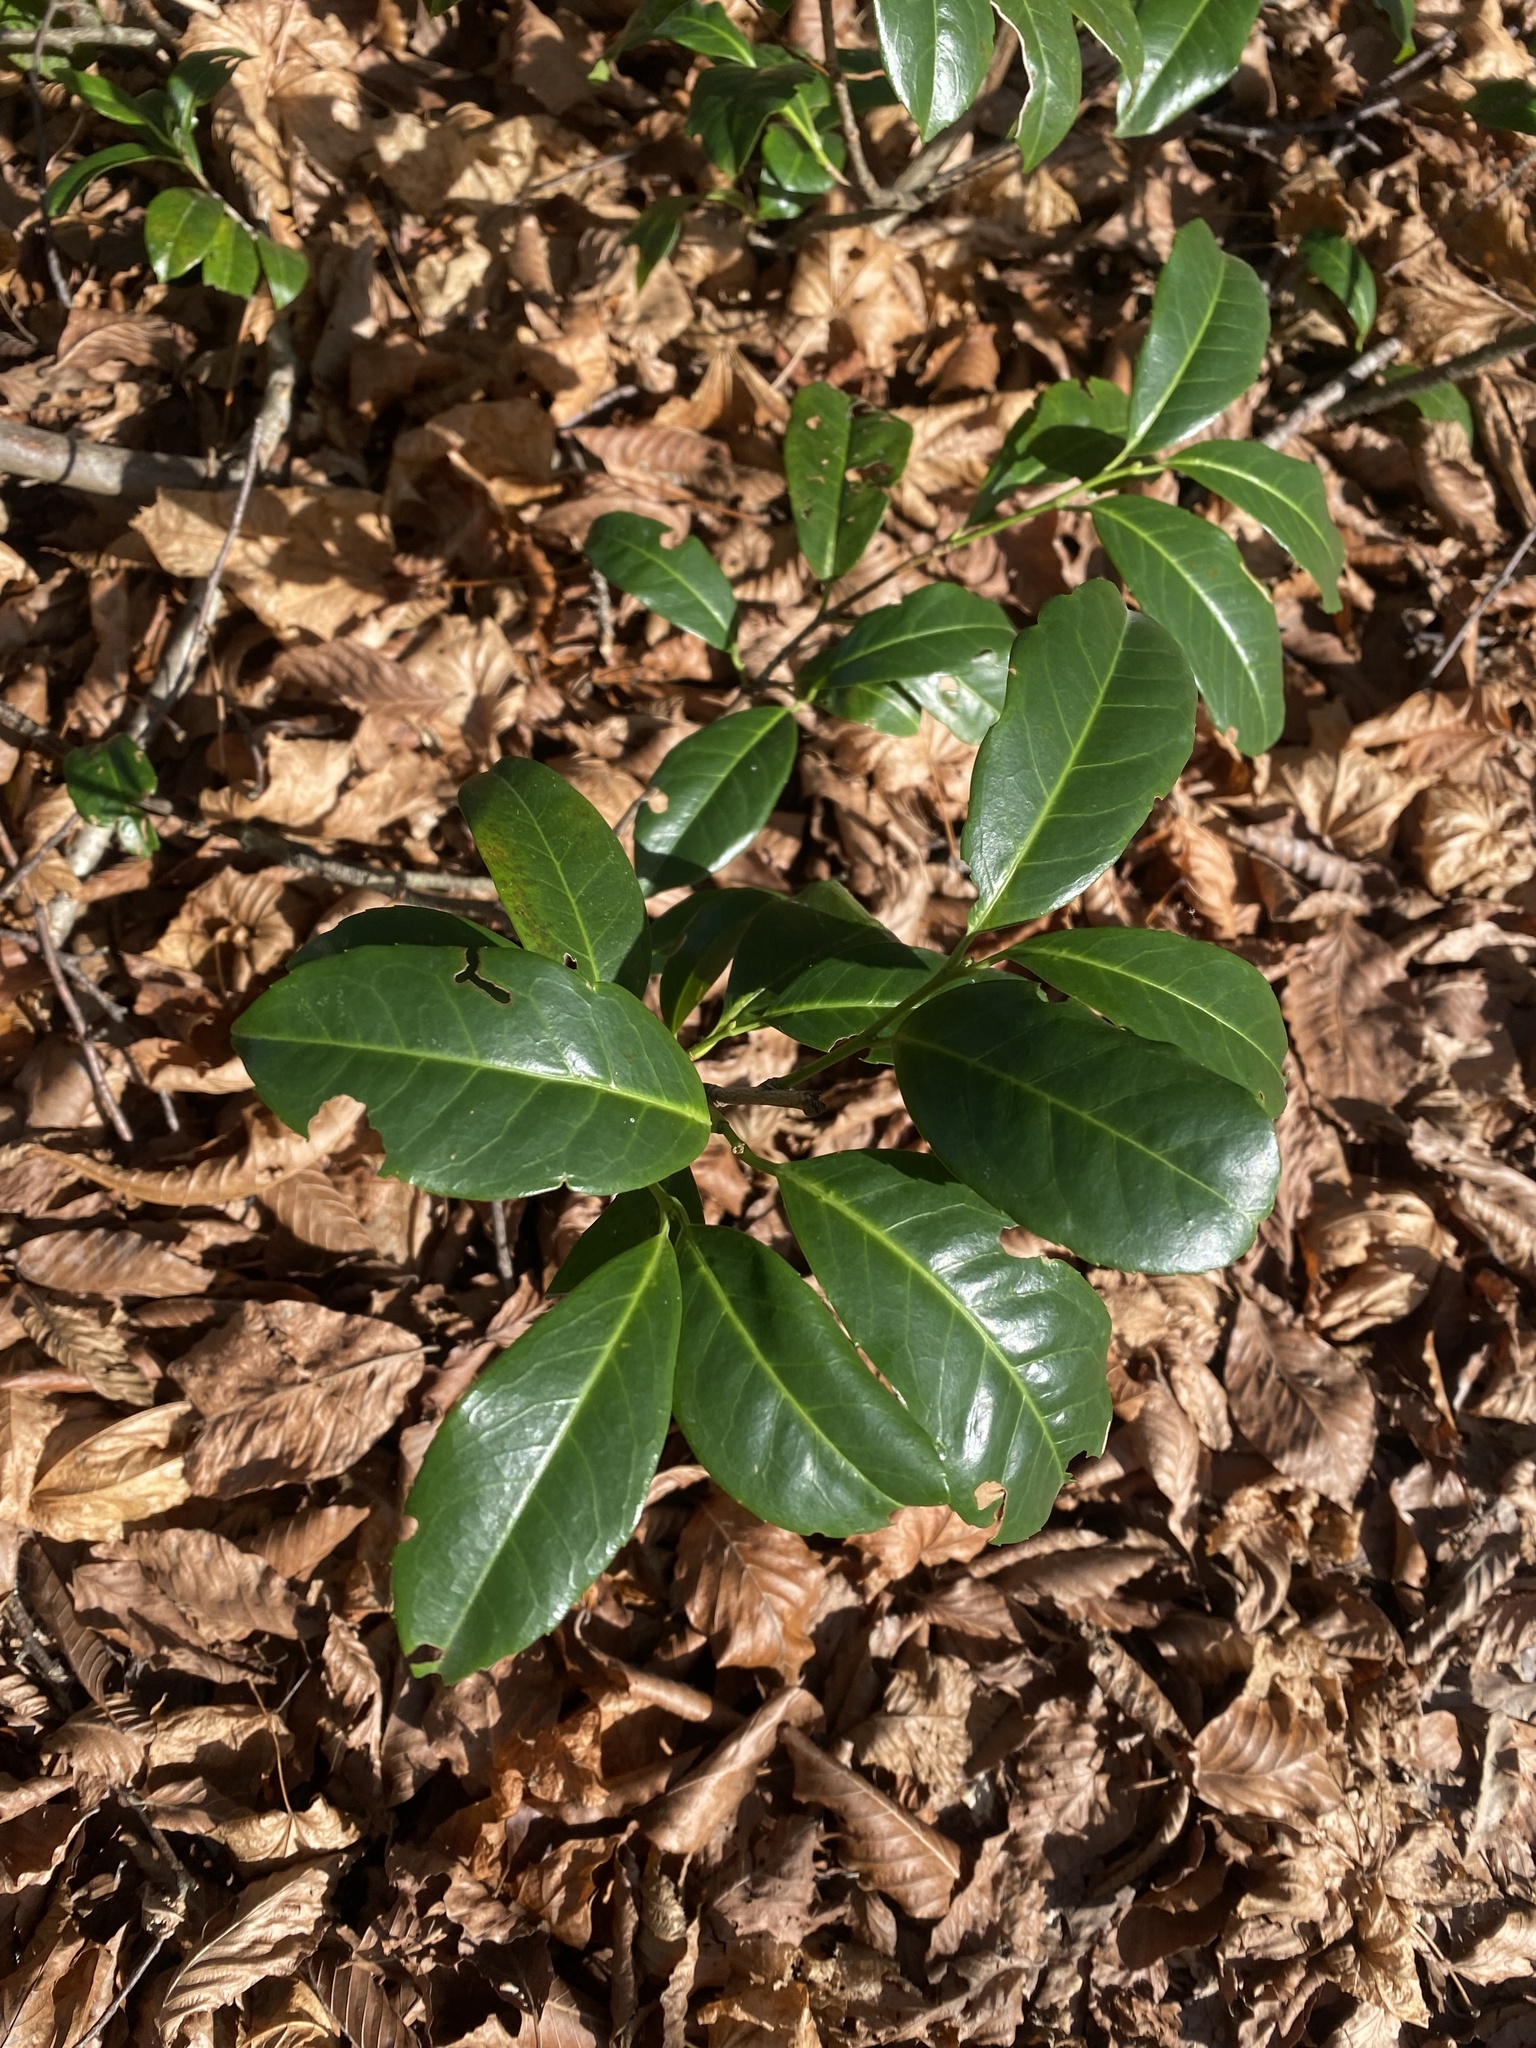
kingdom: Plantae
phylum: Tracheophyta
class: Magnoliopsida
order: Rosales
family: Rosaceae
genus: Prunus
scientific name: Prunus laurocerasus
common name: Cherry laurel
